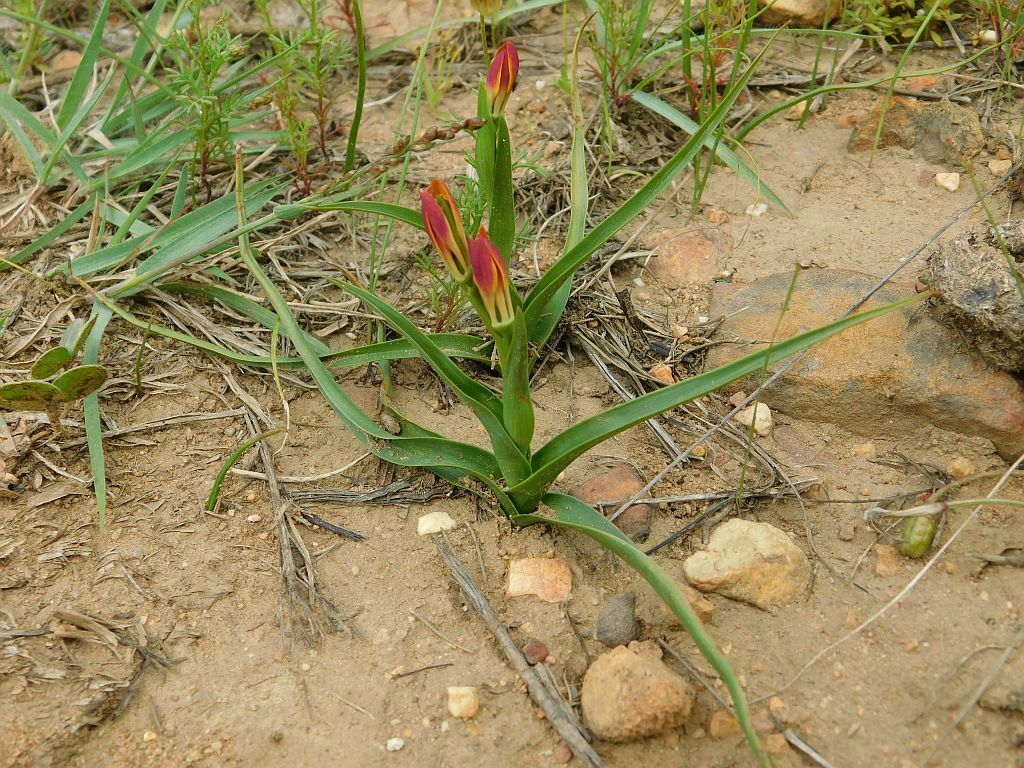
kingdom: Plantae
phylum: Tracheophyta
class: Liliopsida
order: Liliales
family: Colchicaceae
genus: Baeometra
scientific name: Baeometra uniflora
